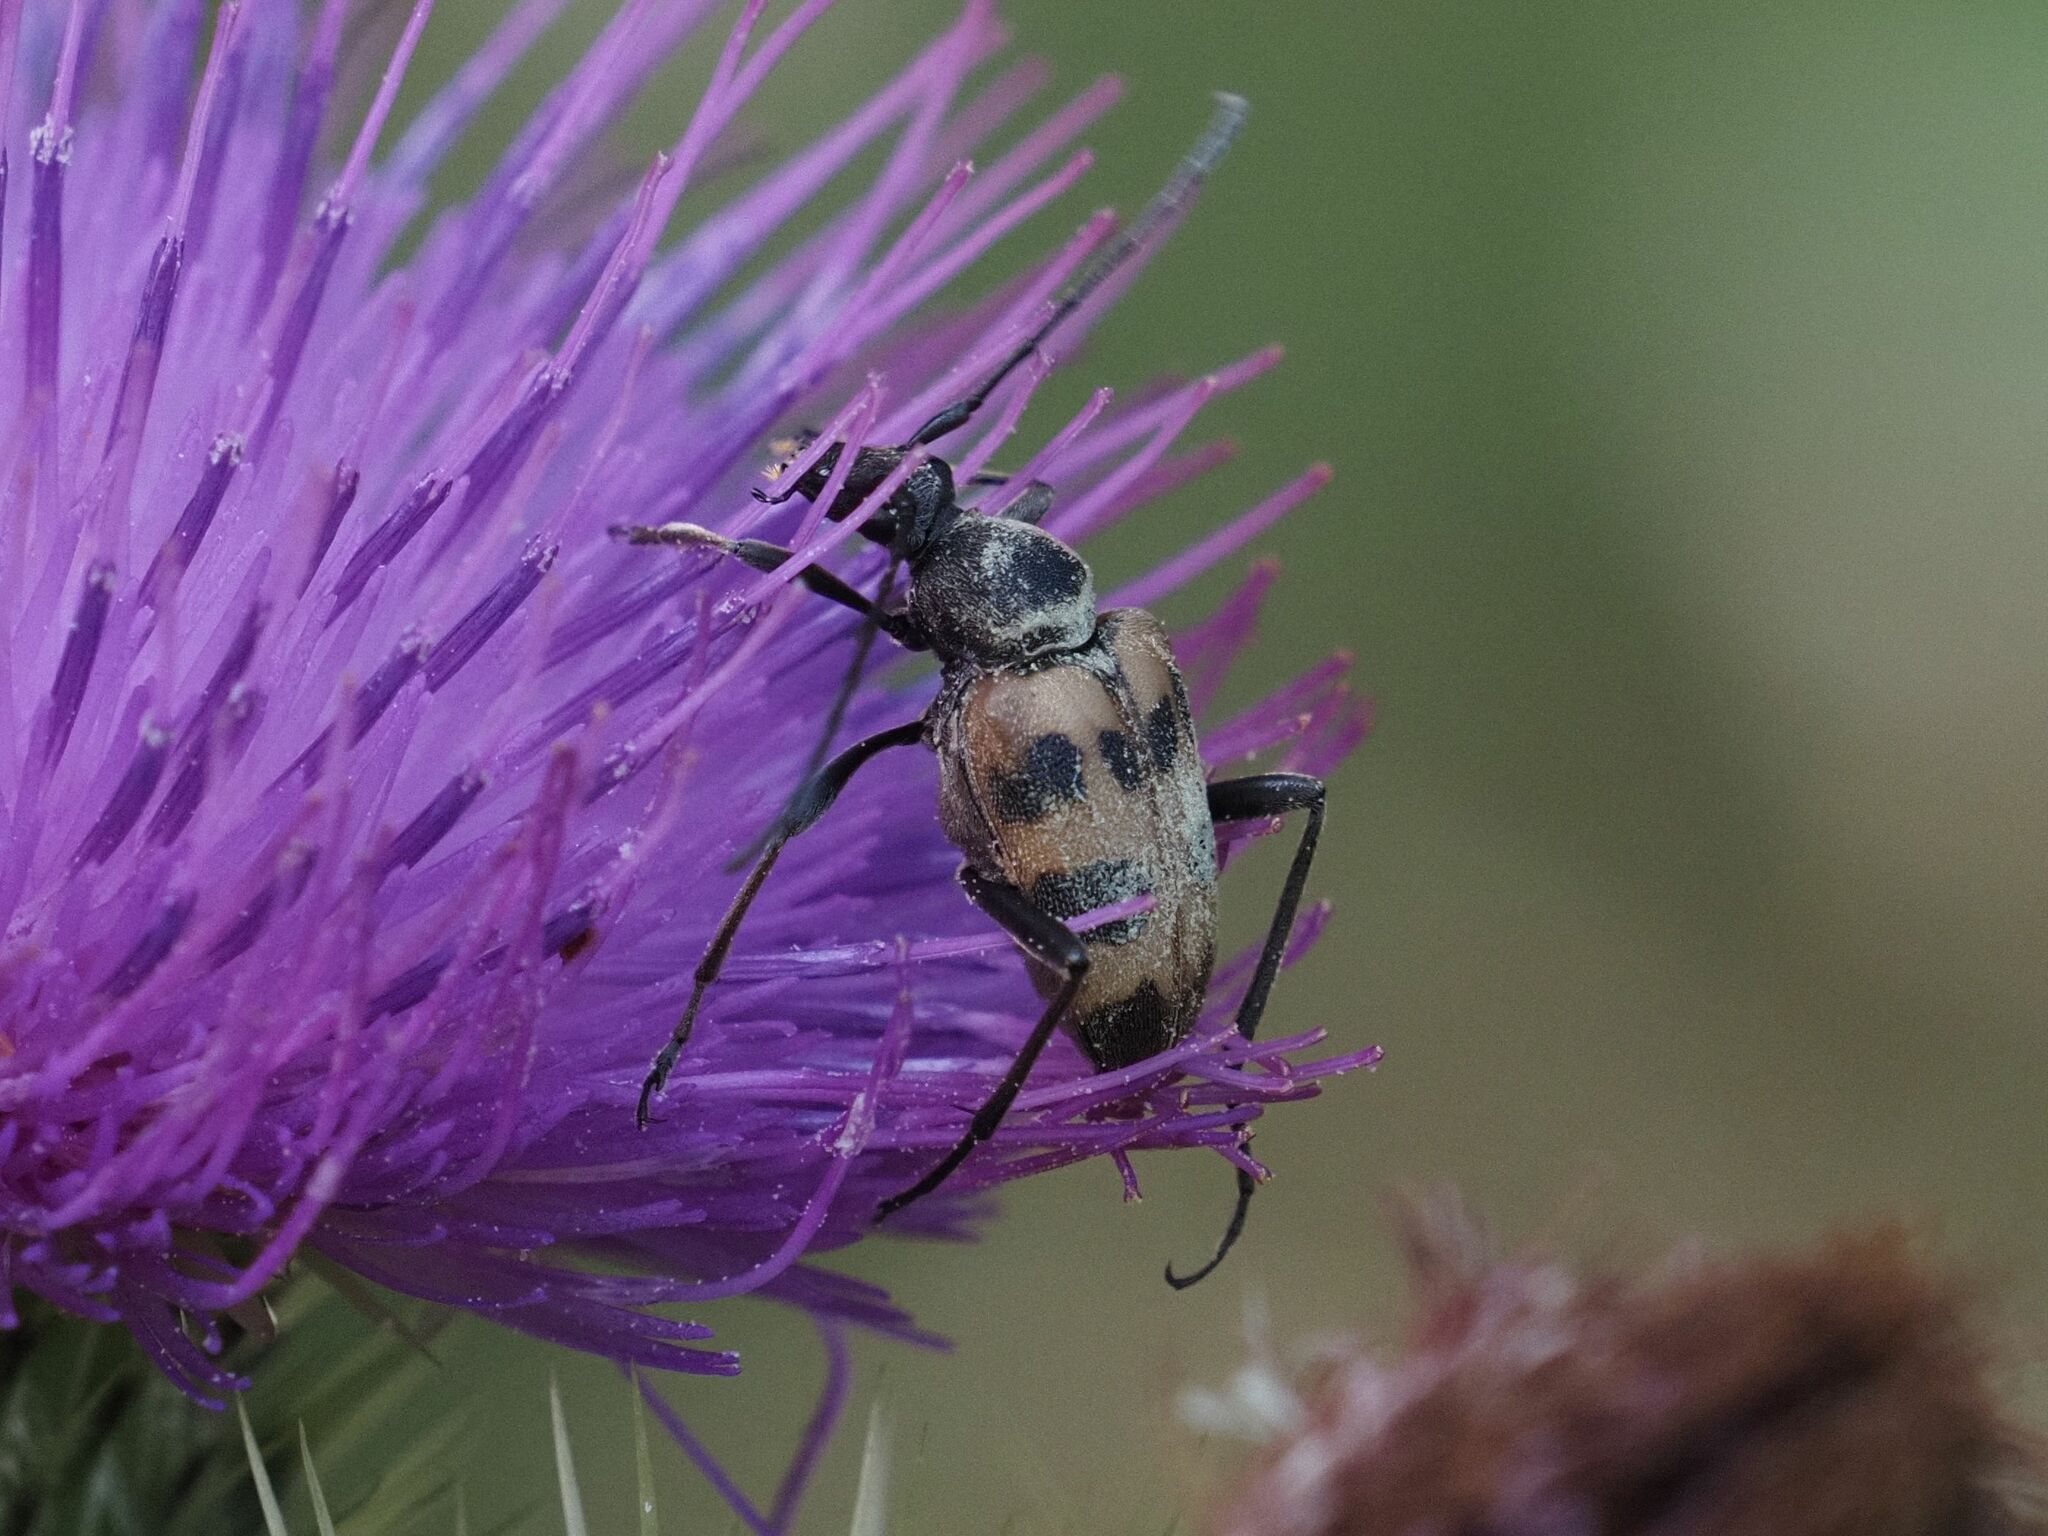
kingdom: Animalia
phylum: Arthropoda
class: Insecta
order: Coleoptera
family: Cerambycidae
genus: Pachytodes
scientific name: Pachytodes cerambyciformis
